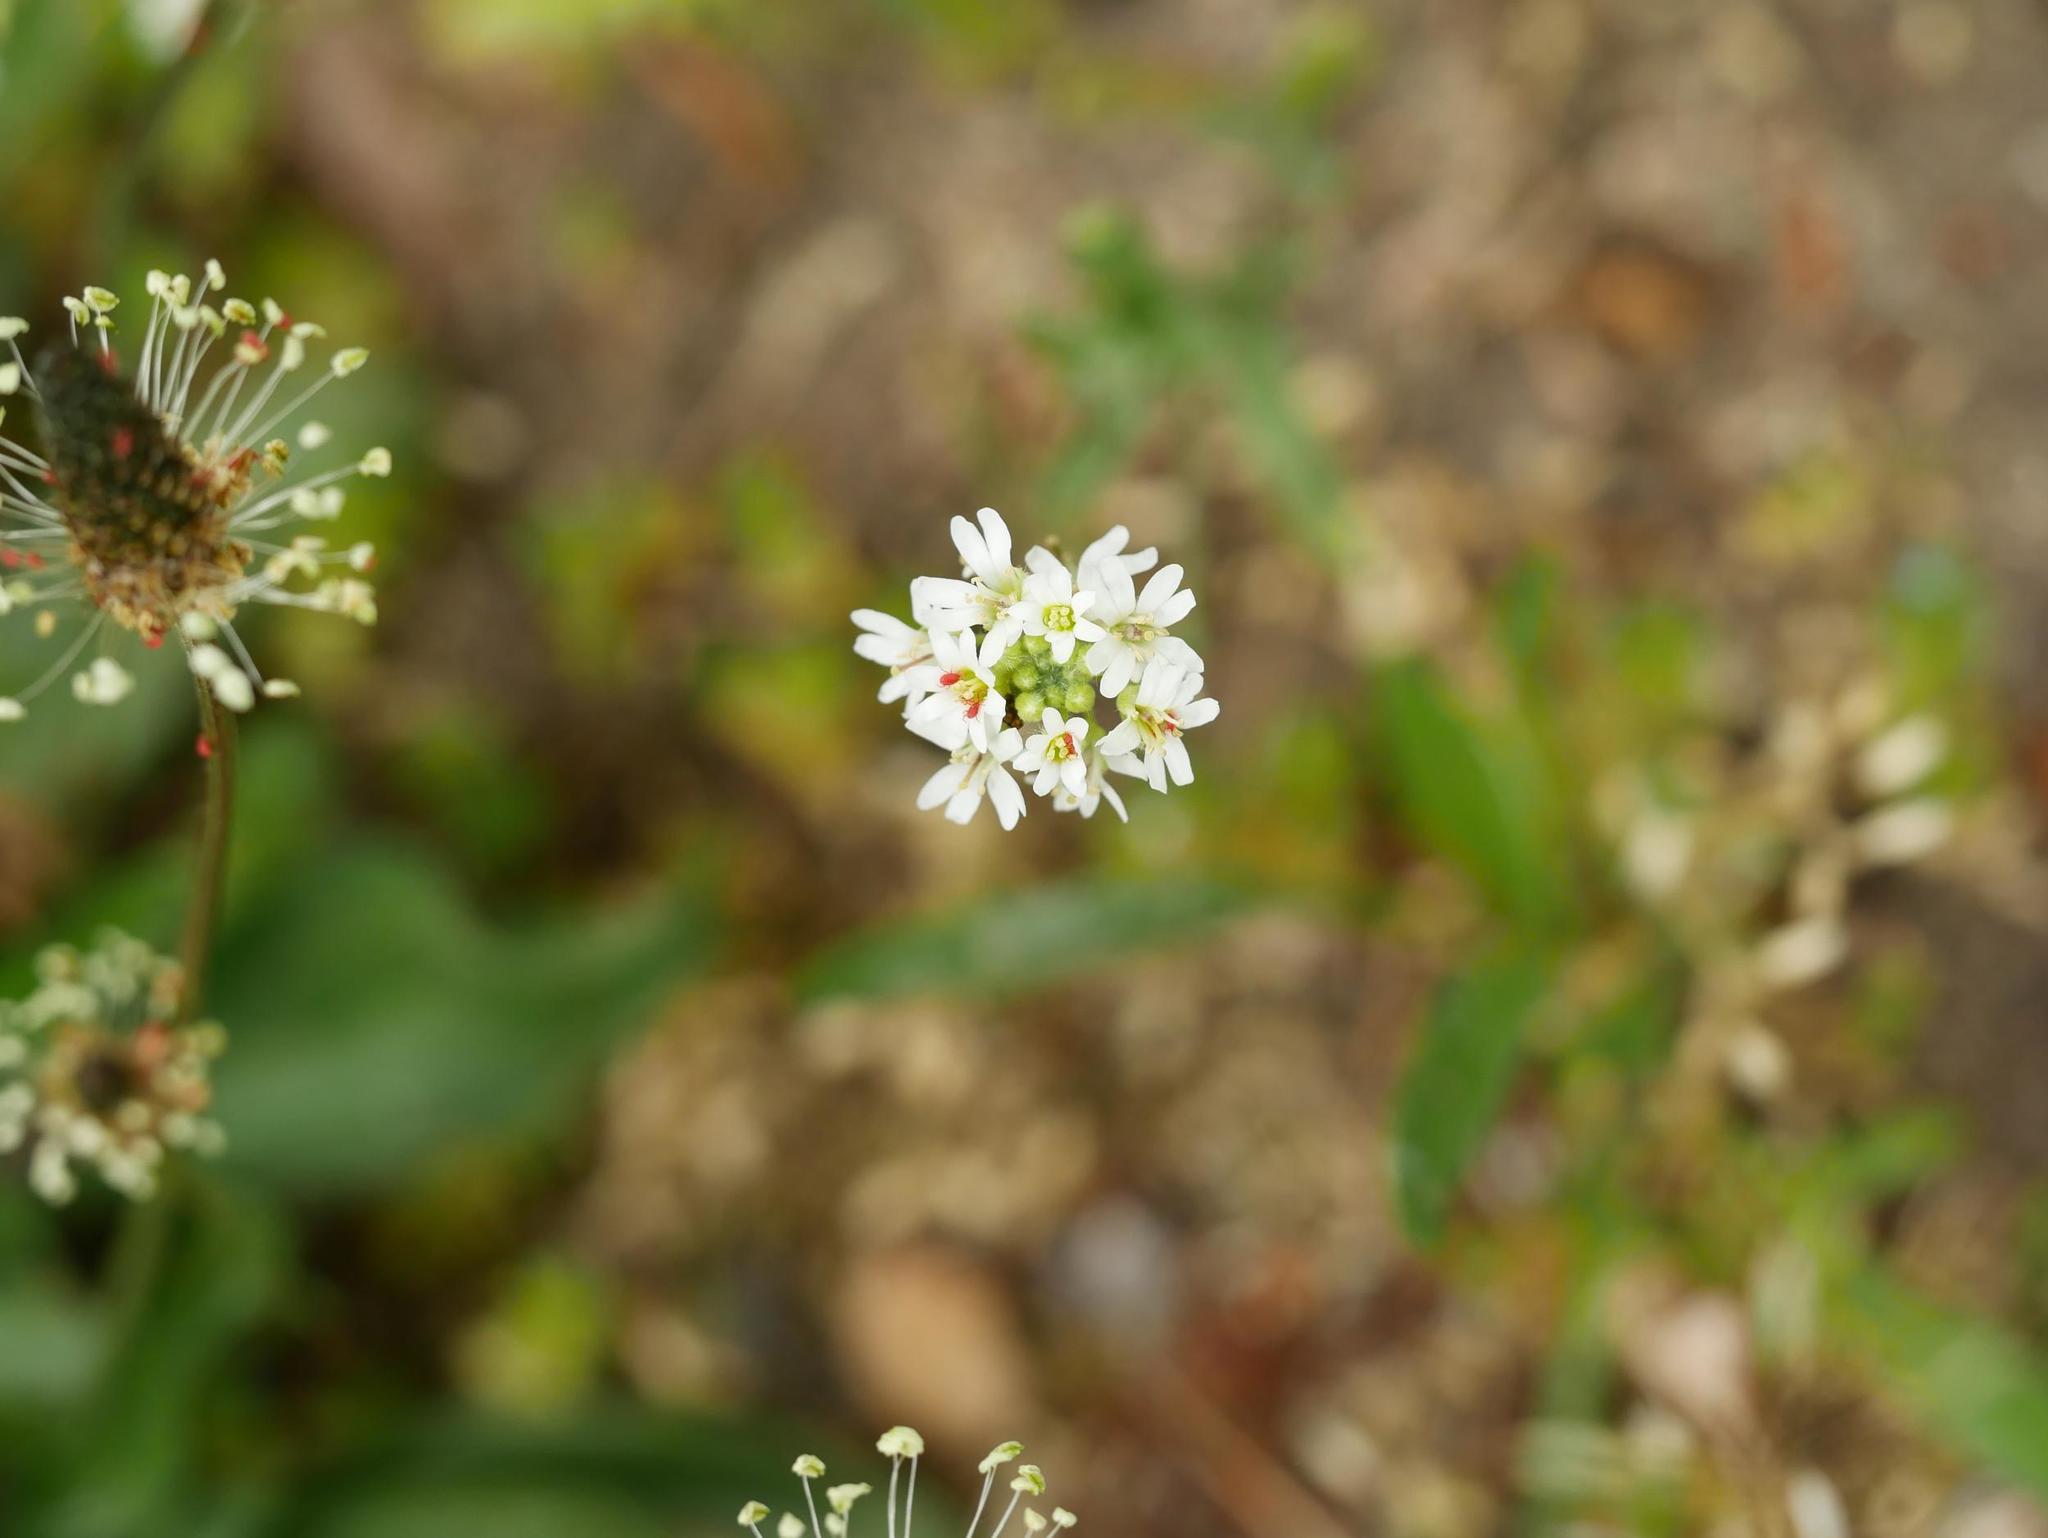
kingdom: Plantae
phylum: Tracheophyta
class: Magnoliopsida
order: Brassicales
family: Brassicaceae
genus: Berteroa
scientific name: Berteroa incana
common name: Hoary alison
